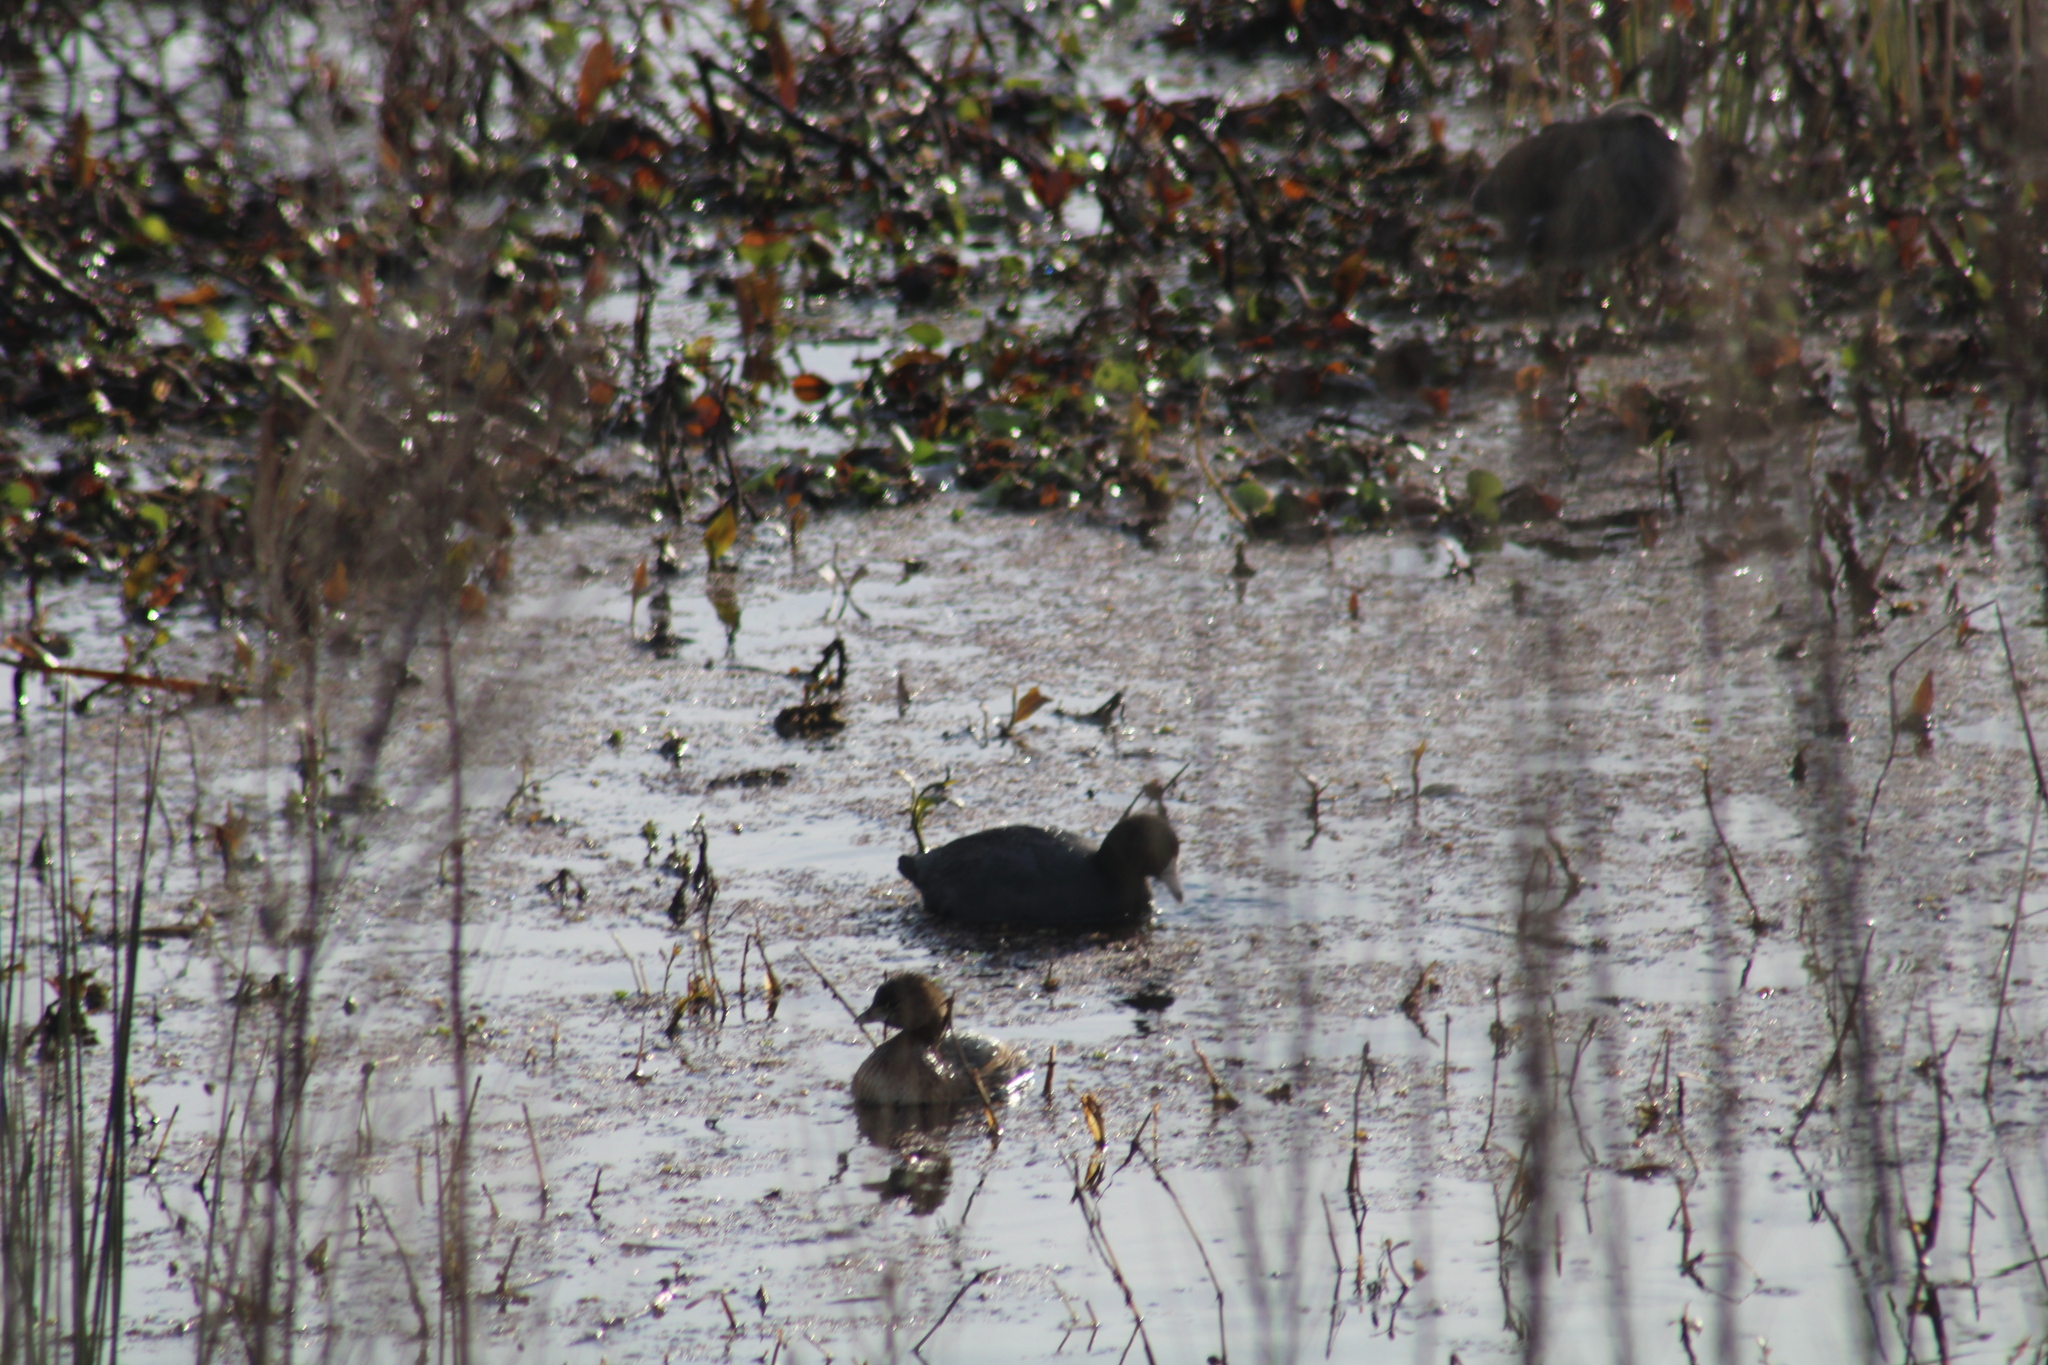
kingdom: Animalia
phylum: Chordata
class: Aves
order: Gruiformes
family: Rallidae
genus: Fulica
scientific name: Fulica americana
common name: American coot
